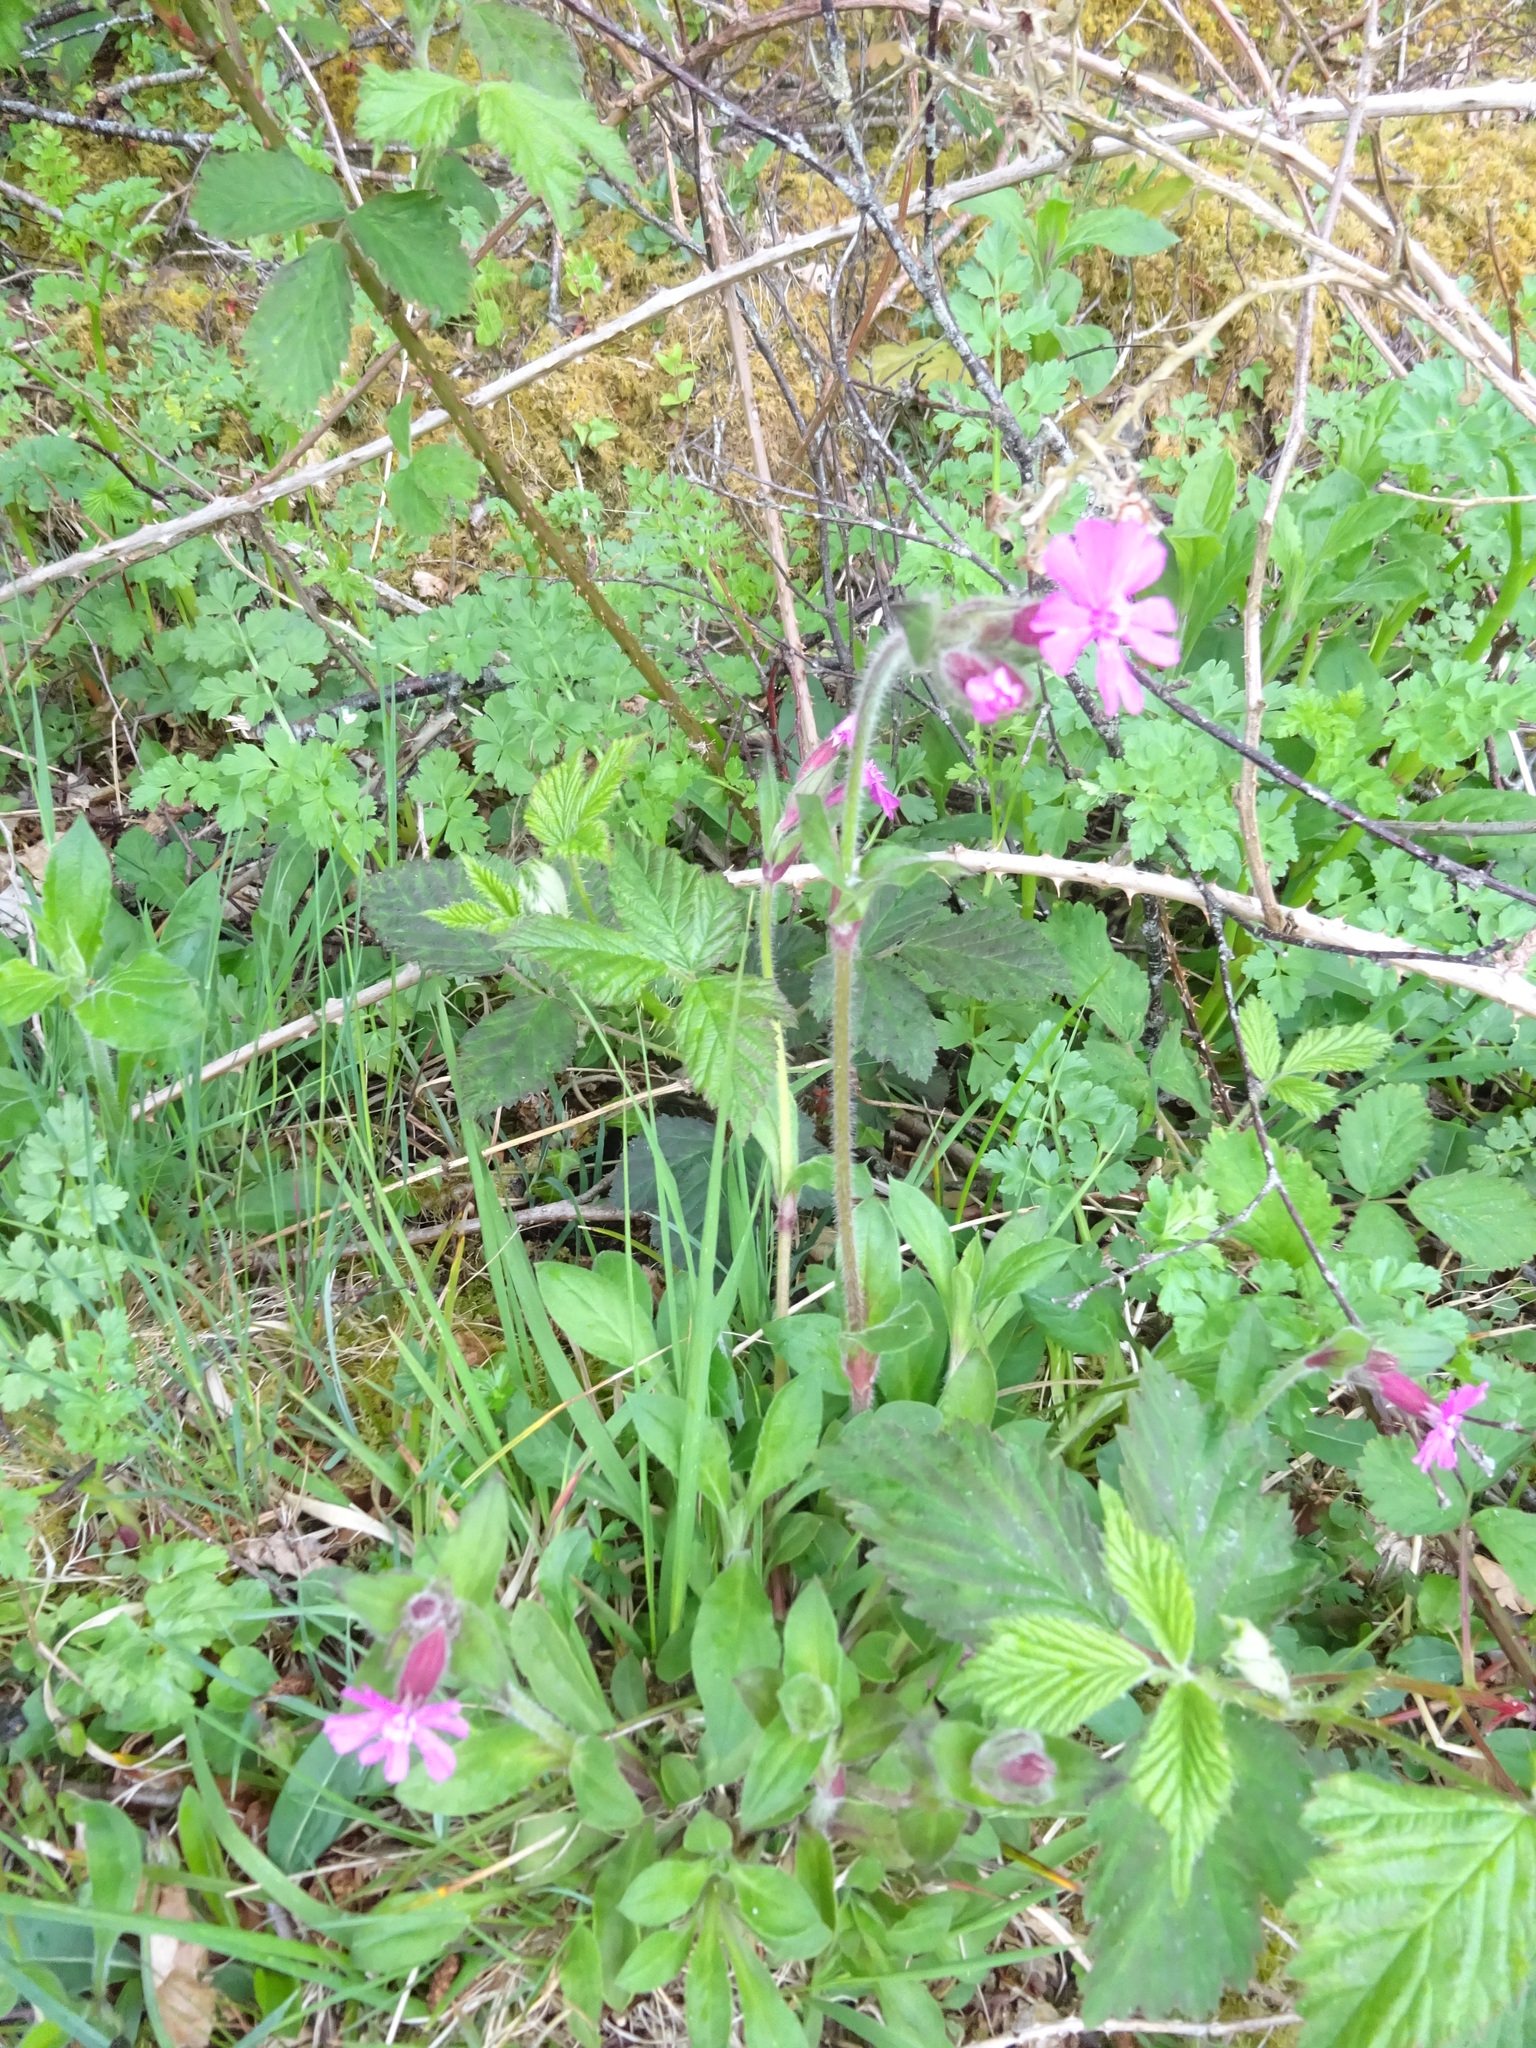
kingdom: Plantae
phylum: Tracheophyta
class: Magnoliopsida
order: Caryophyllales
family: Caryophyllaceae
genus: Silene
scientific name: Silene dioica
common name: Red campion
